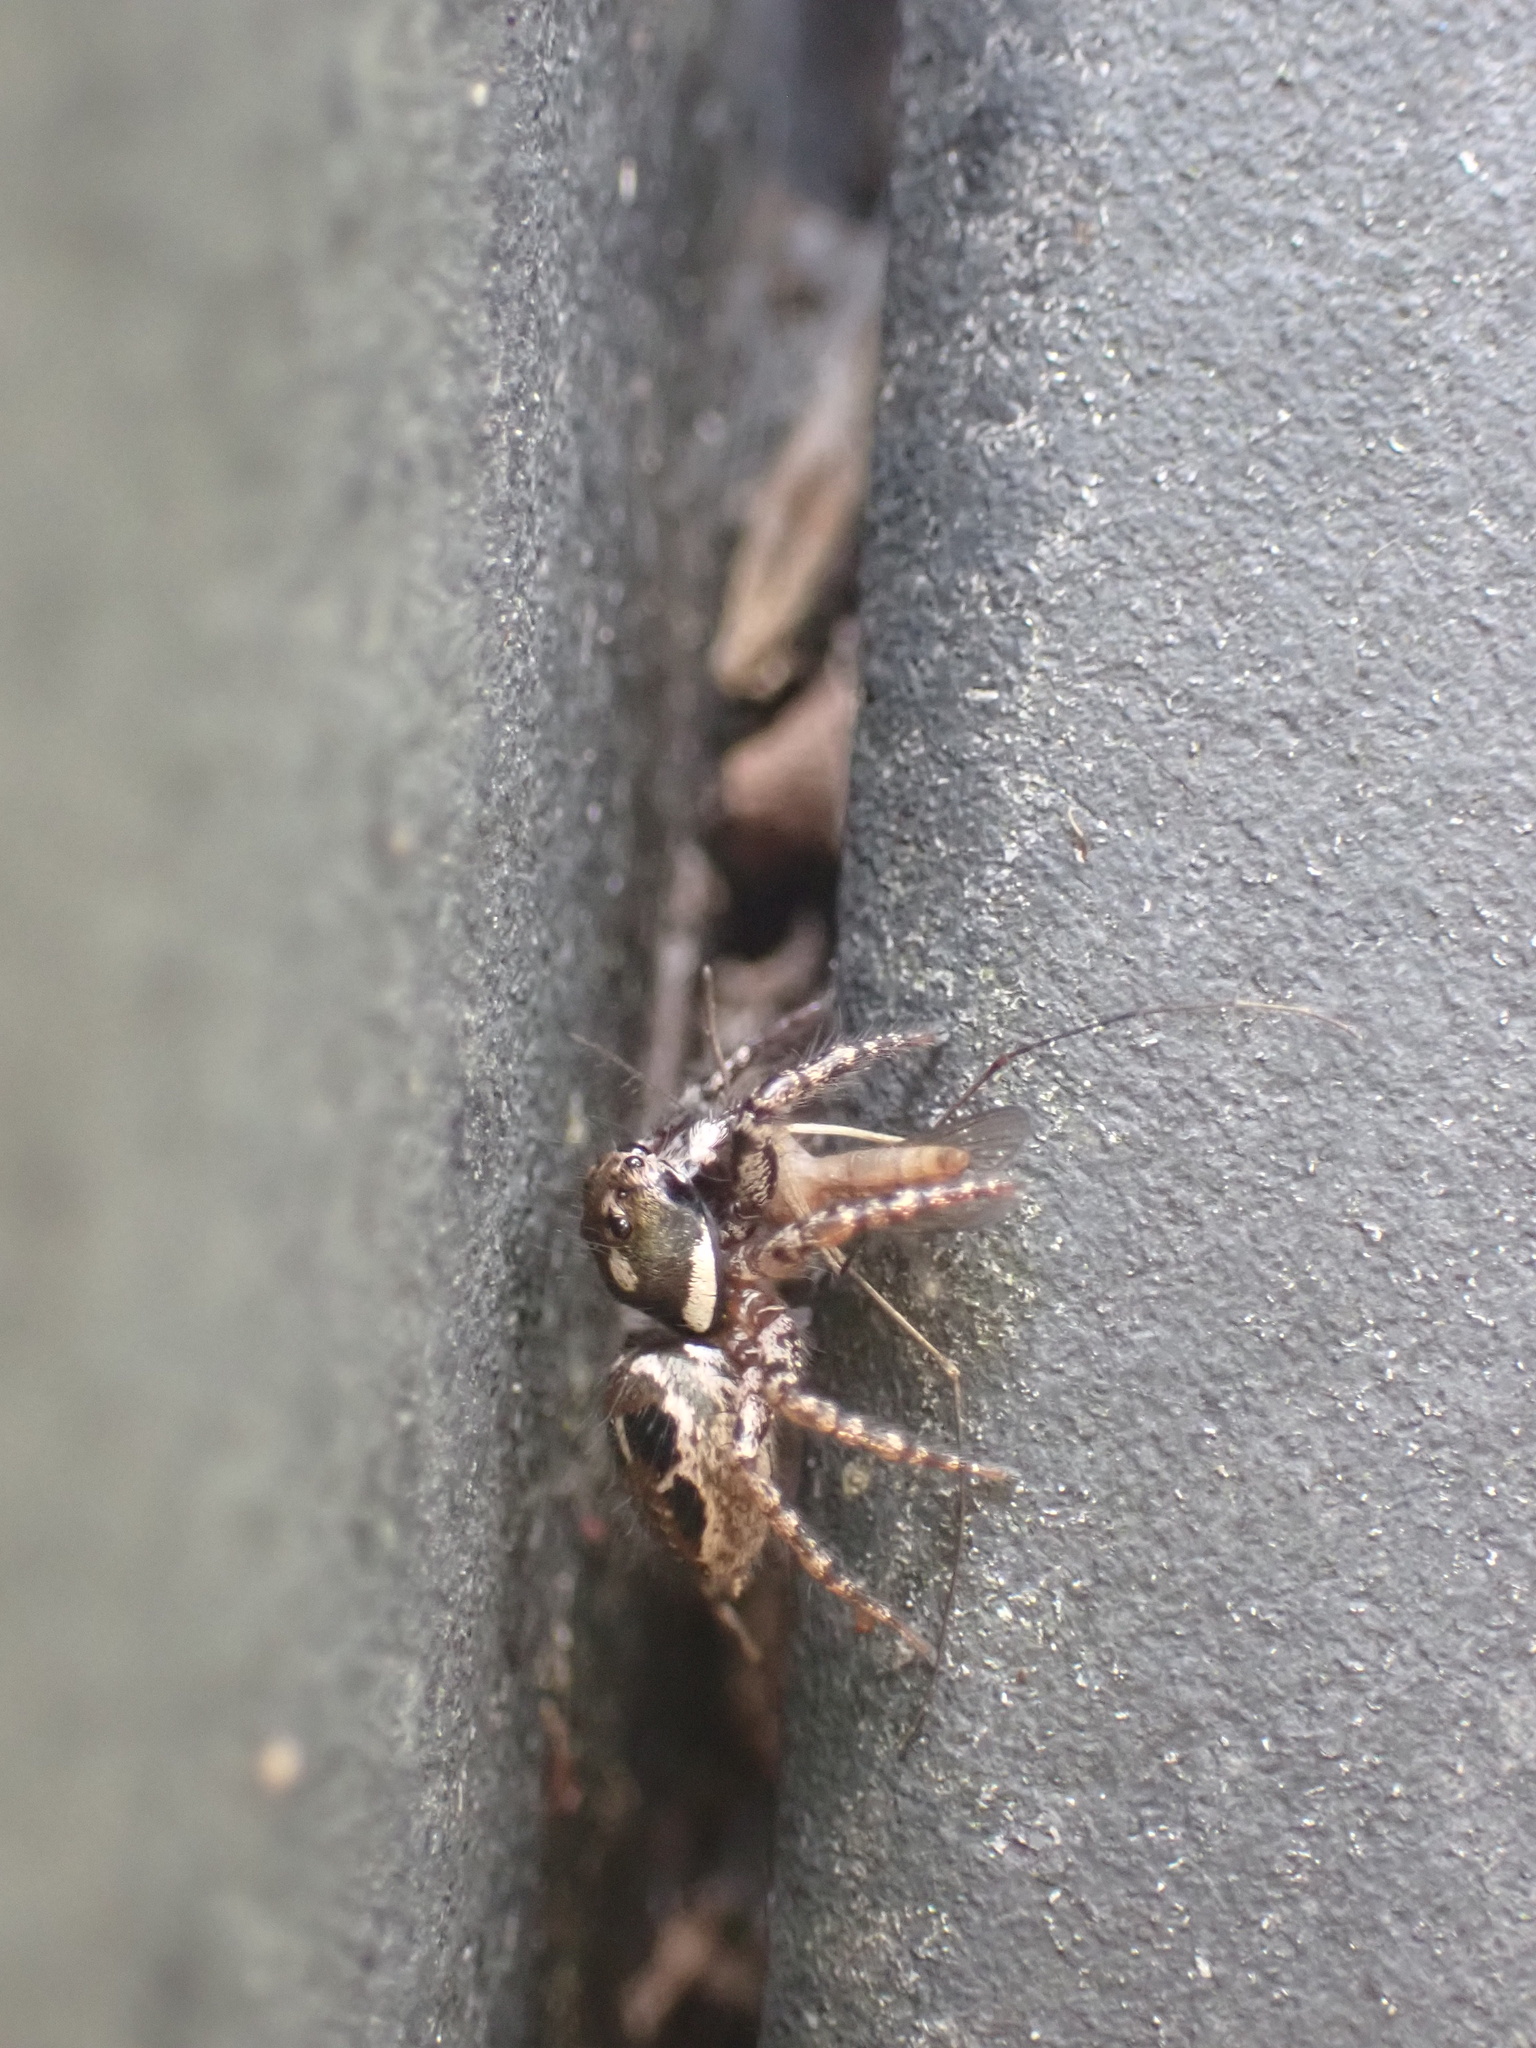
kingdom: Animalia
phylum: Arthropoda
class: Arachnida
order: Araneae
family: Salticidae
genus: Anasaitis
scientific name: Anasaitis canosa
